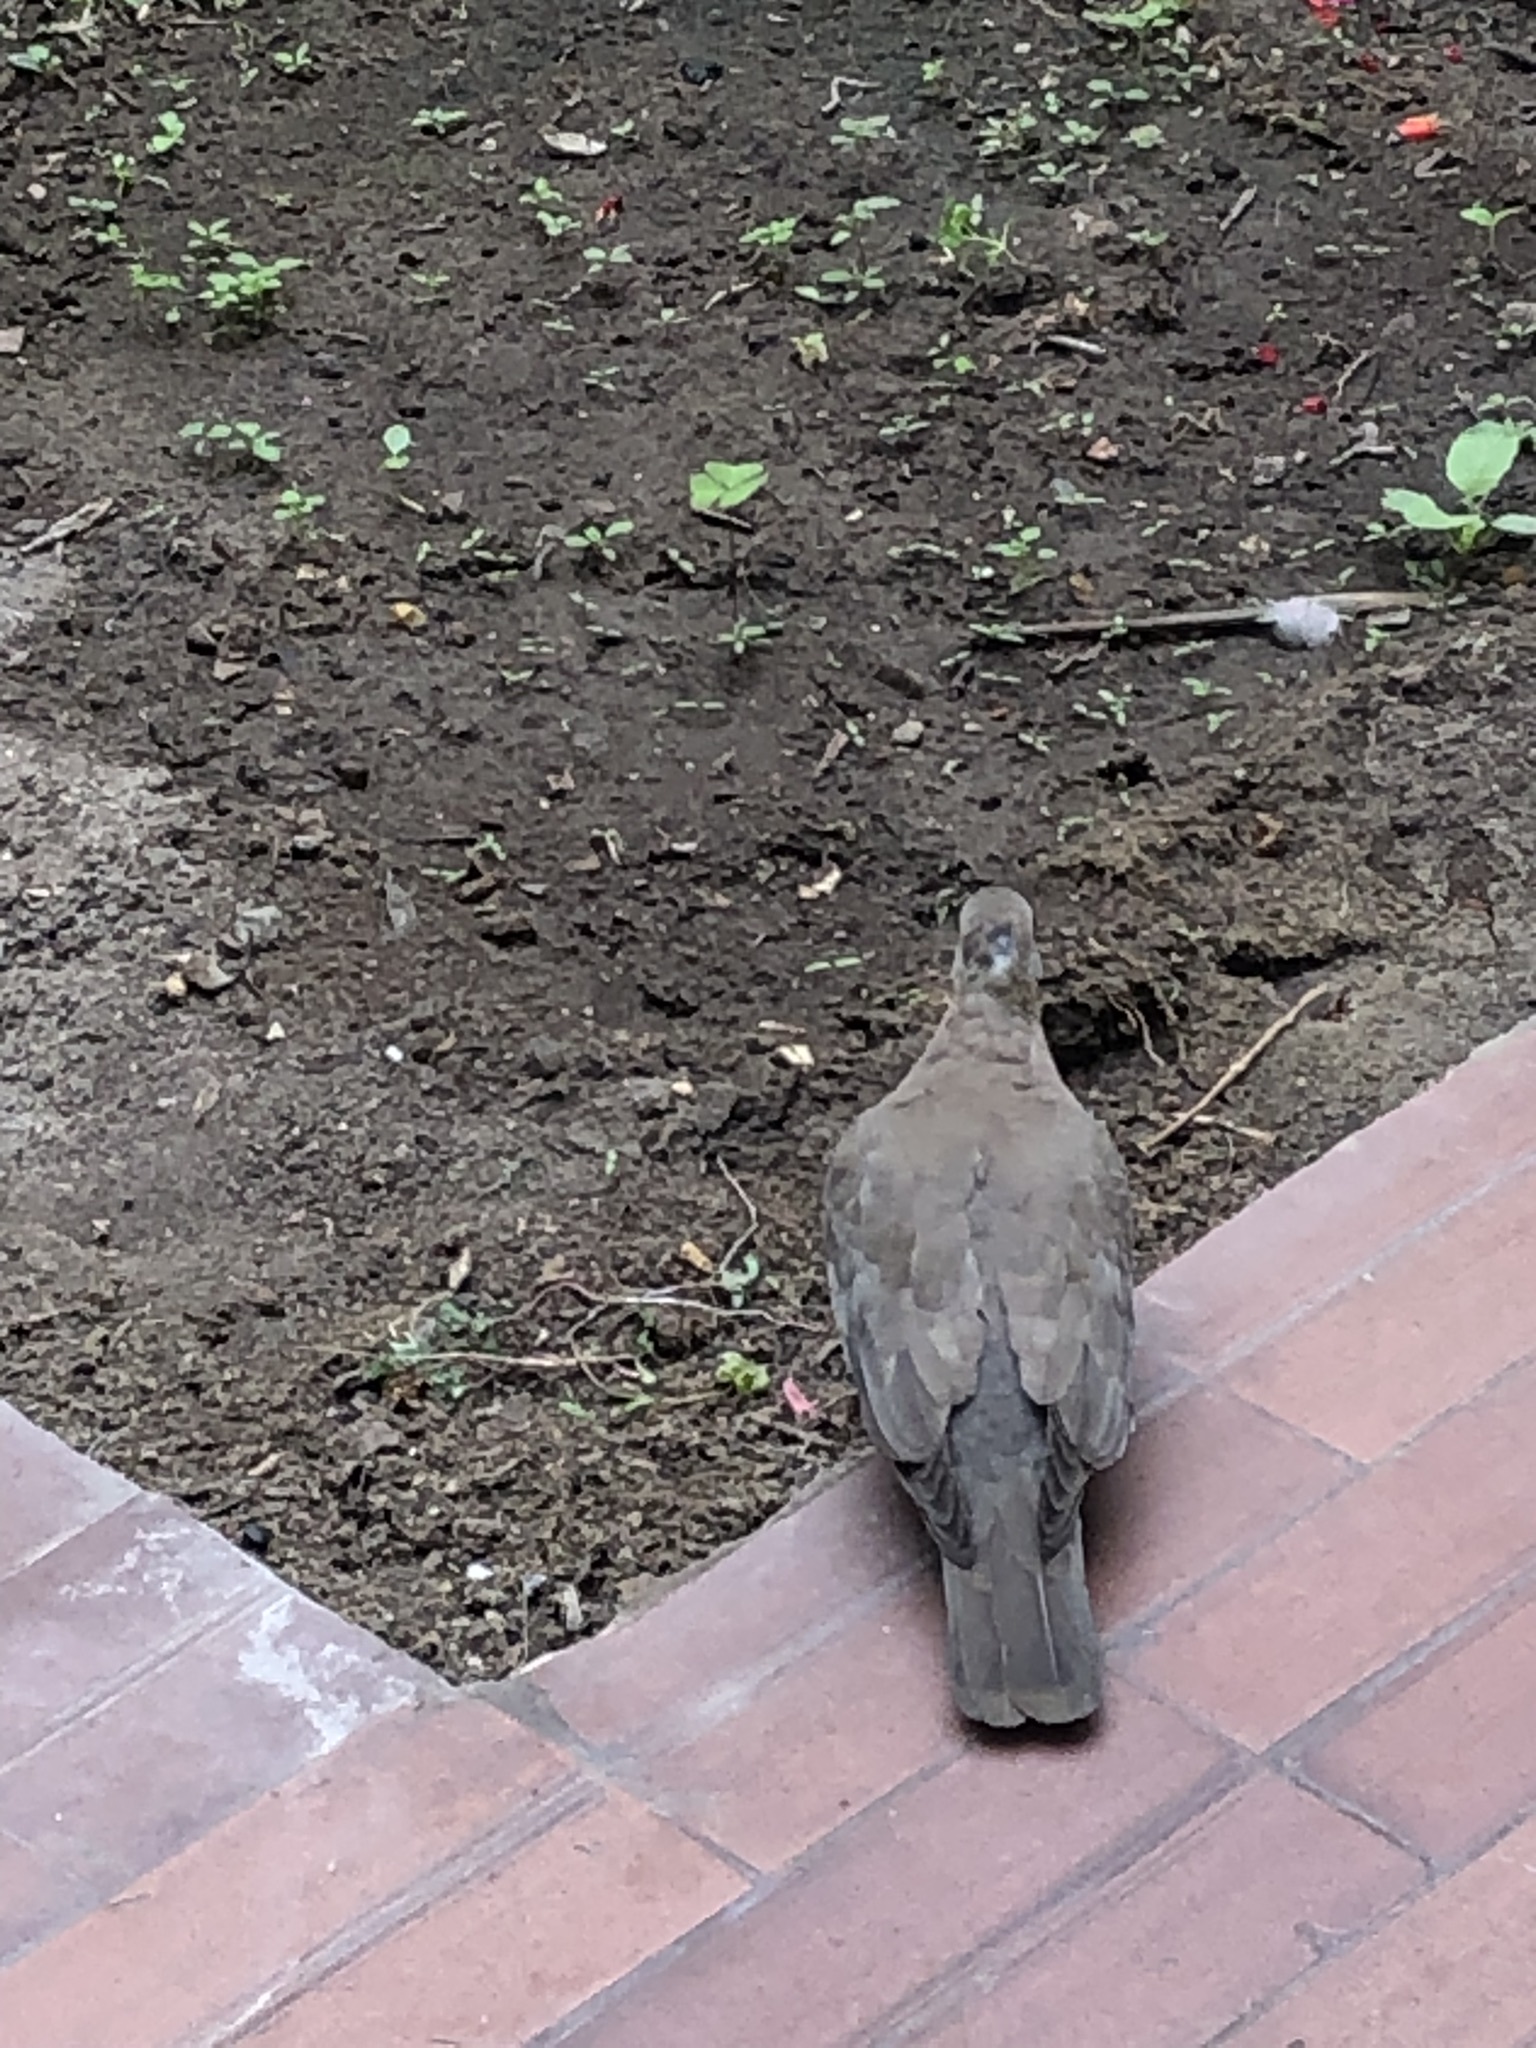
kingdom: Animalia
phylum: Chordata
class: Aves
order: Columbiformes
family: Columbidae
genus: Zenaida
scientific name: Zenaida meloda
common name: West peruvian dove
